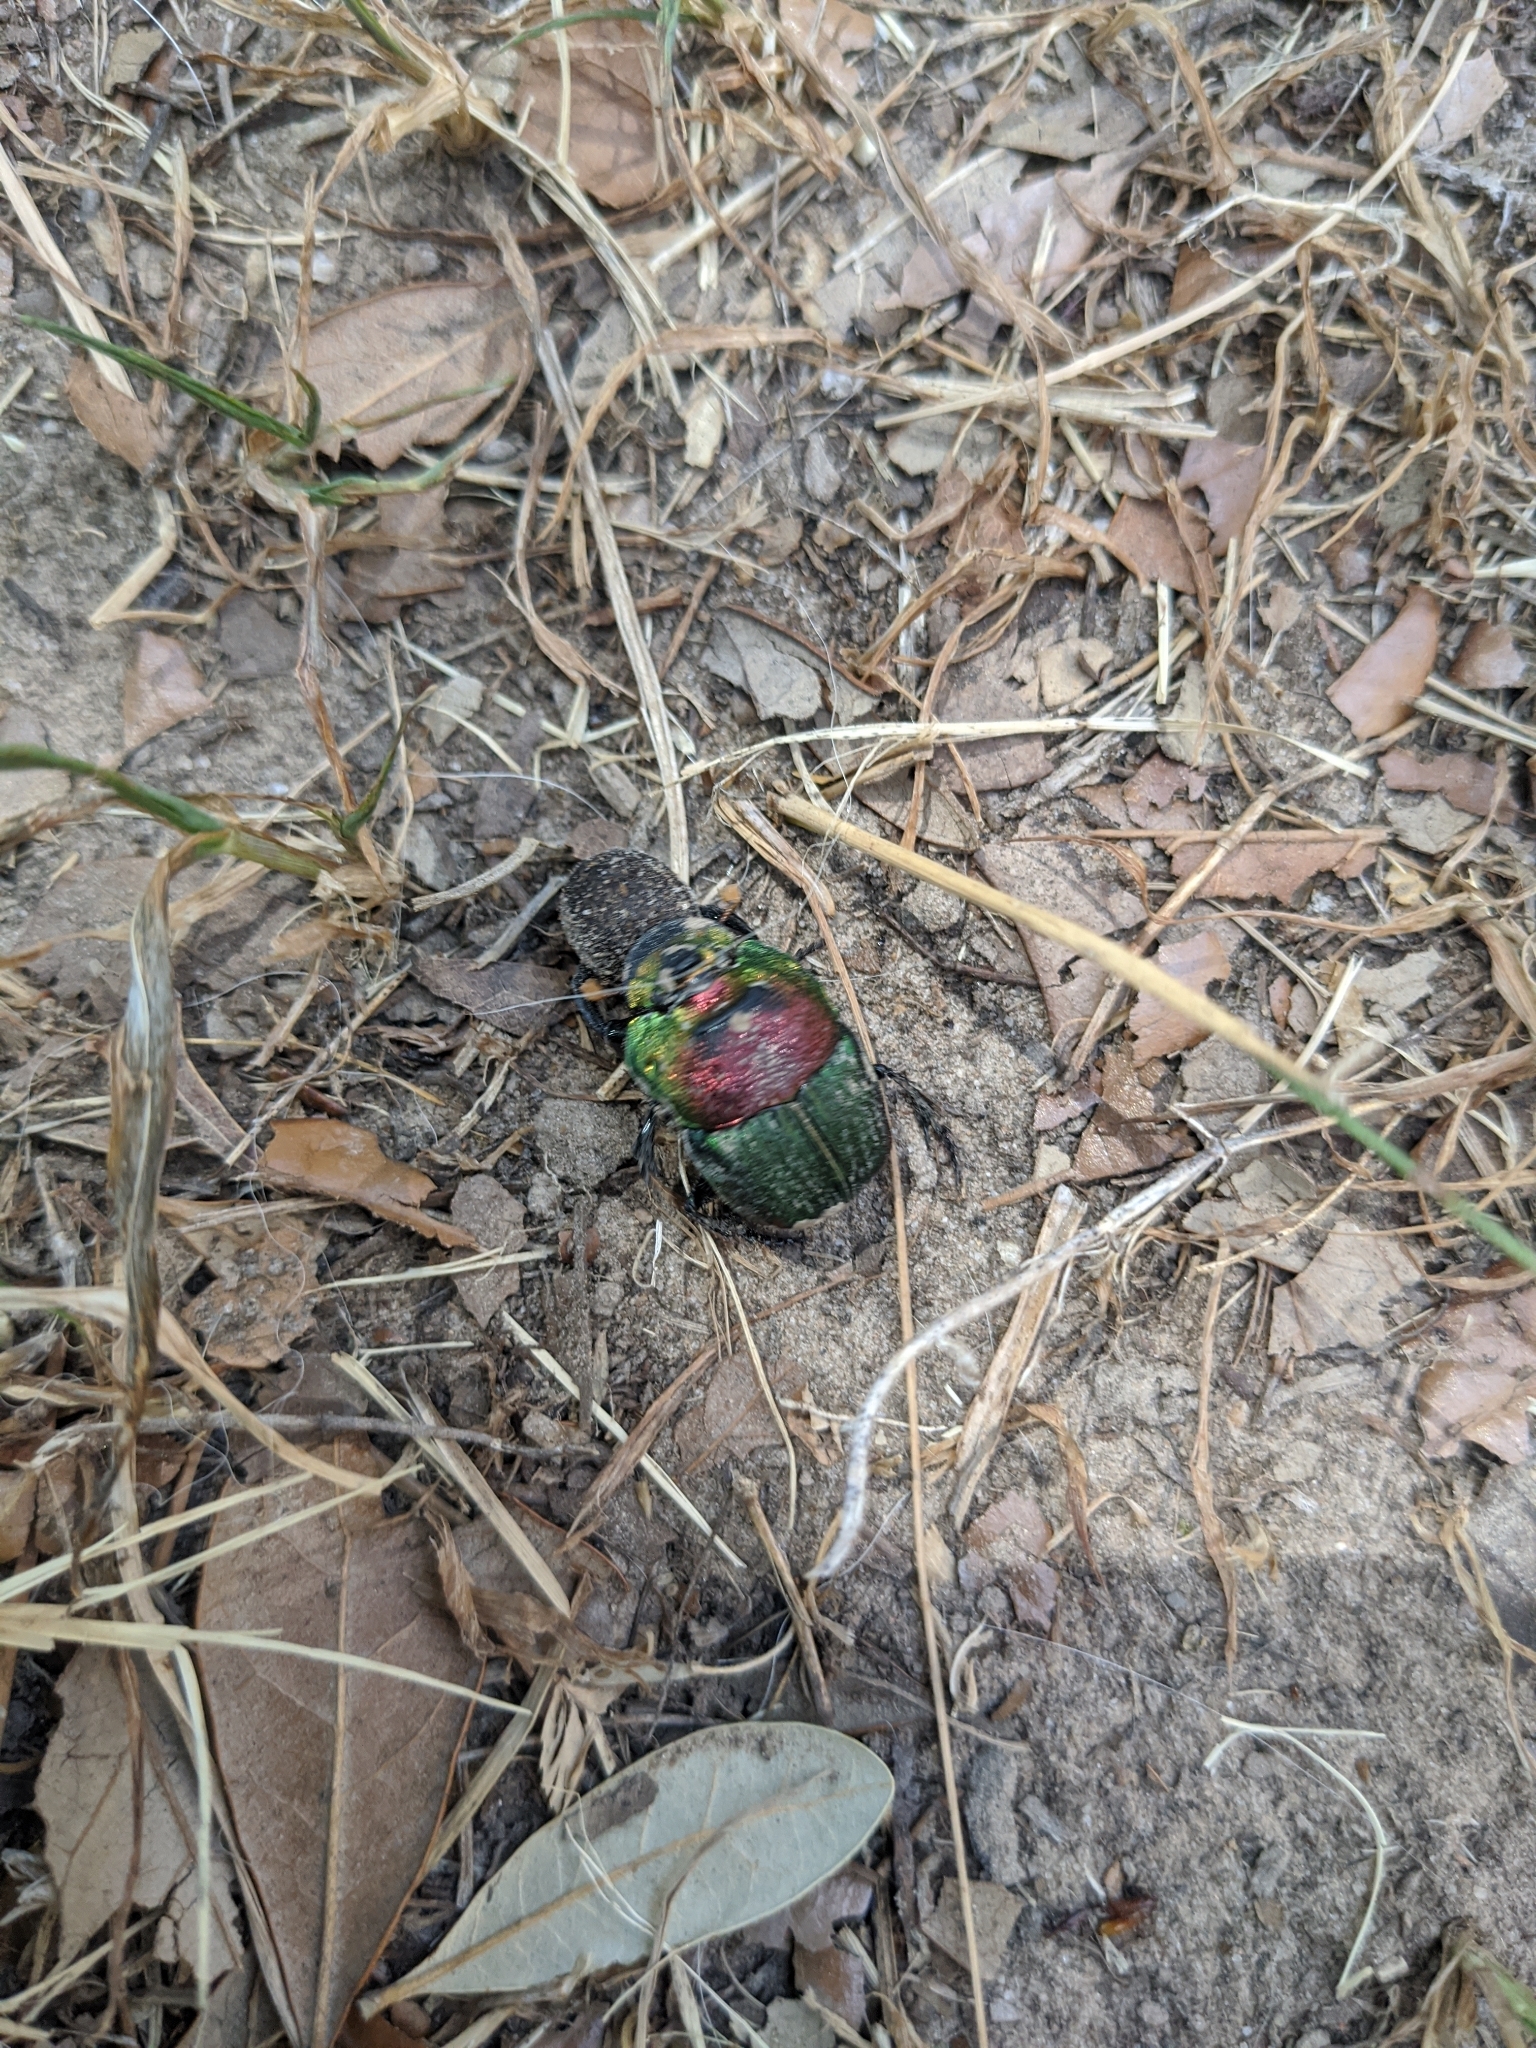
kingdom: Animalia
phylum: Arthropoda
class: Insecta
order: Coleoptera
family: Scarabaeidae
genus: Phanaeus
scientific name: Phanaeus vindex
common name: Rainbow scarab
